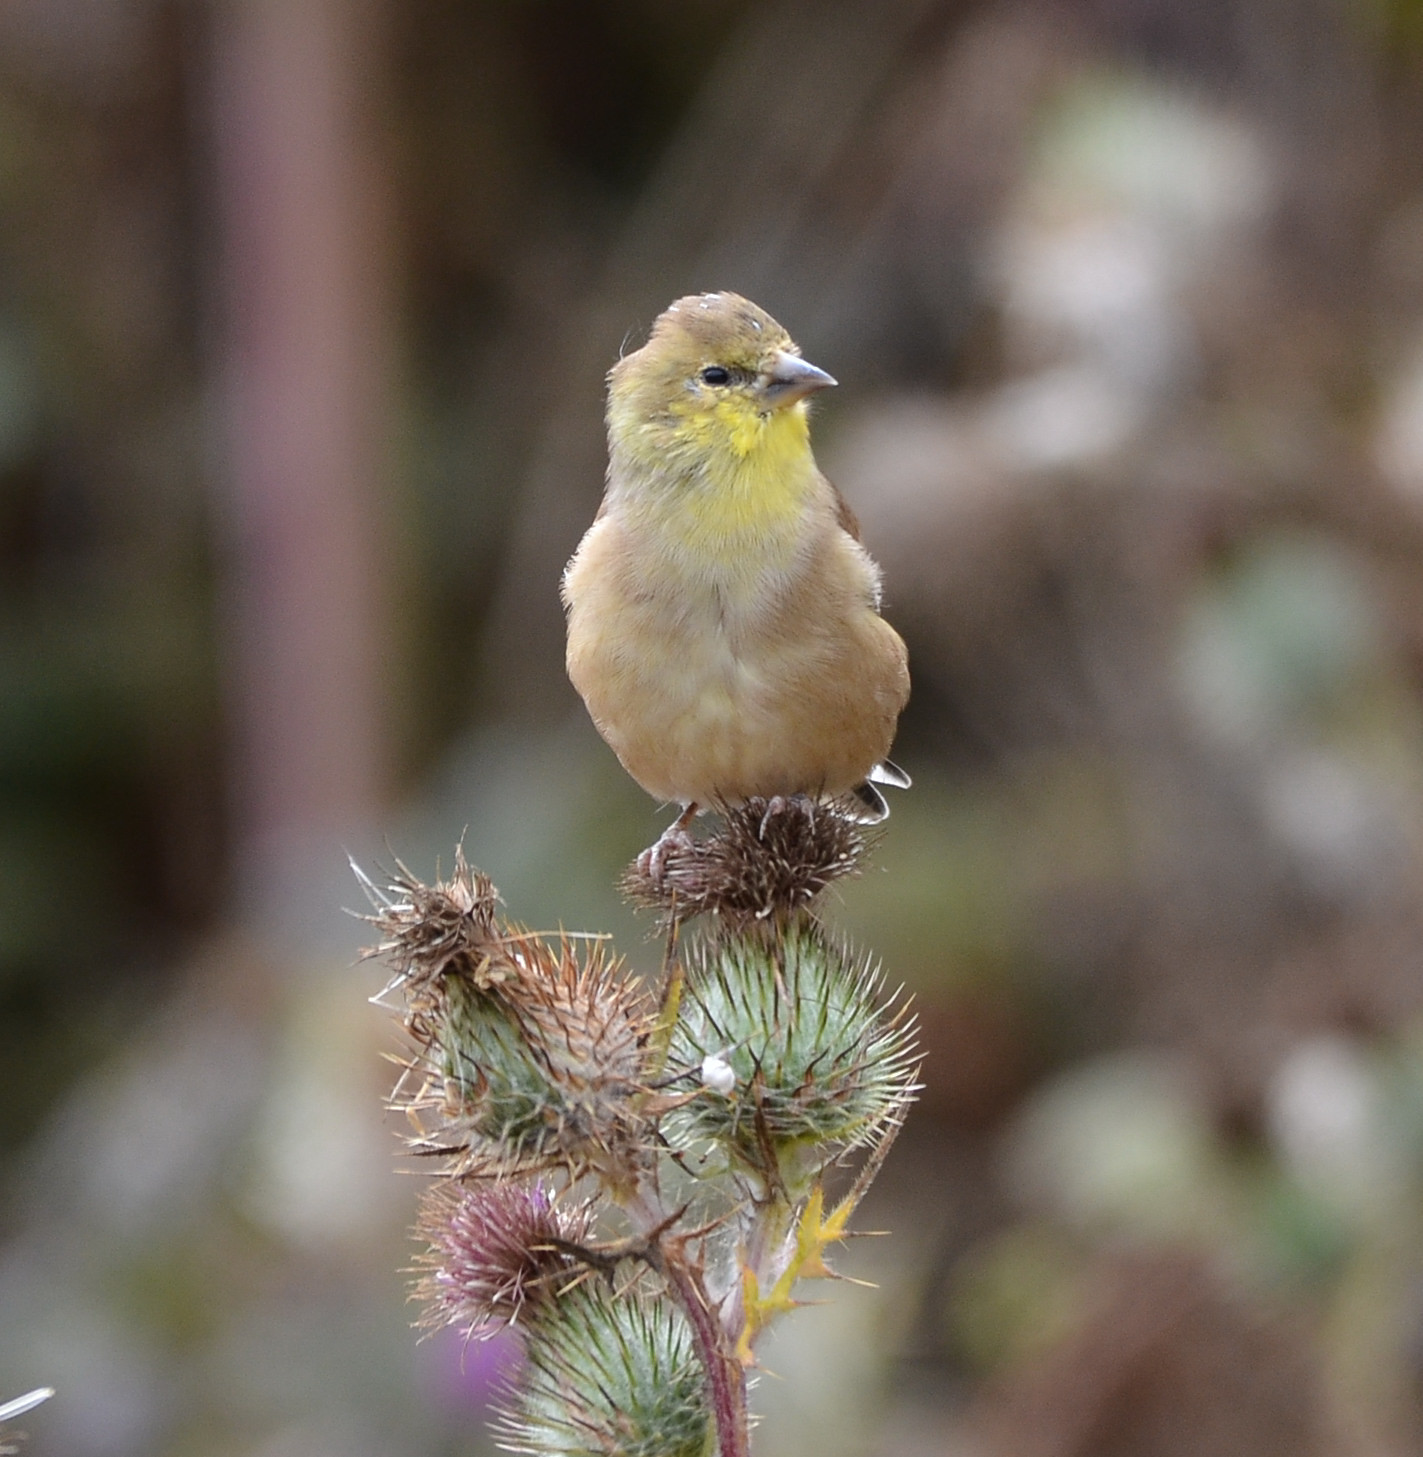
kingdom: Animalia
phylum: Chordata
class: Aves
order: Passeriformes
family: Fringillidae
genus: Spinus
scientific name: Spinus tristis
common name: American goldfinch
